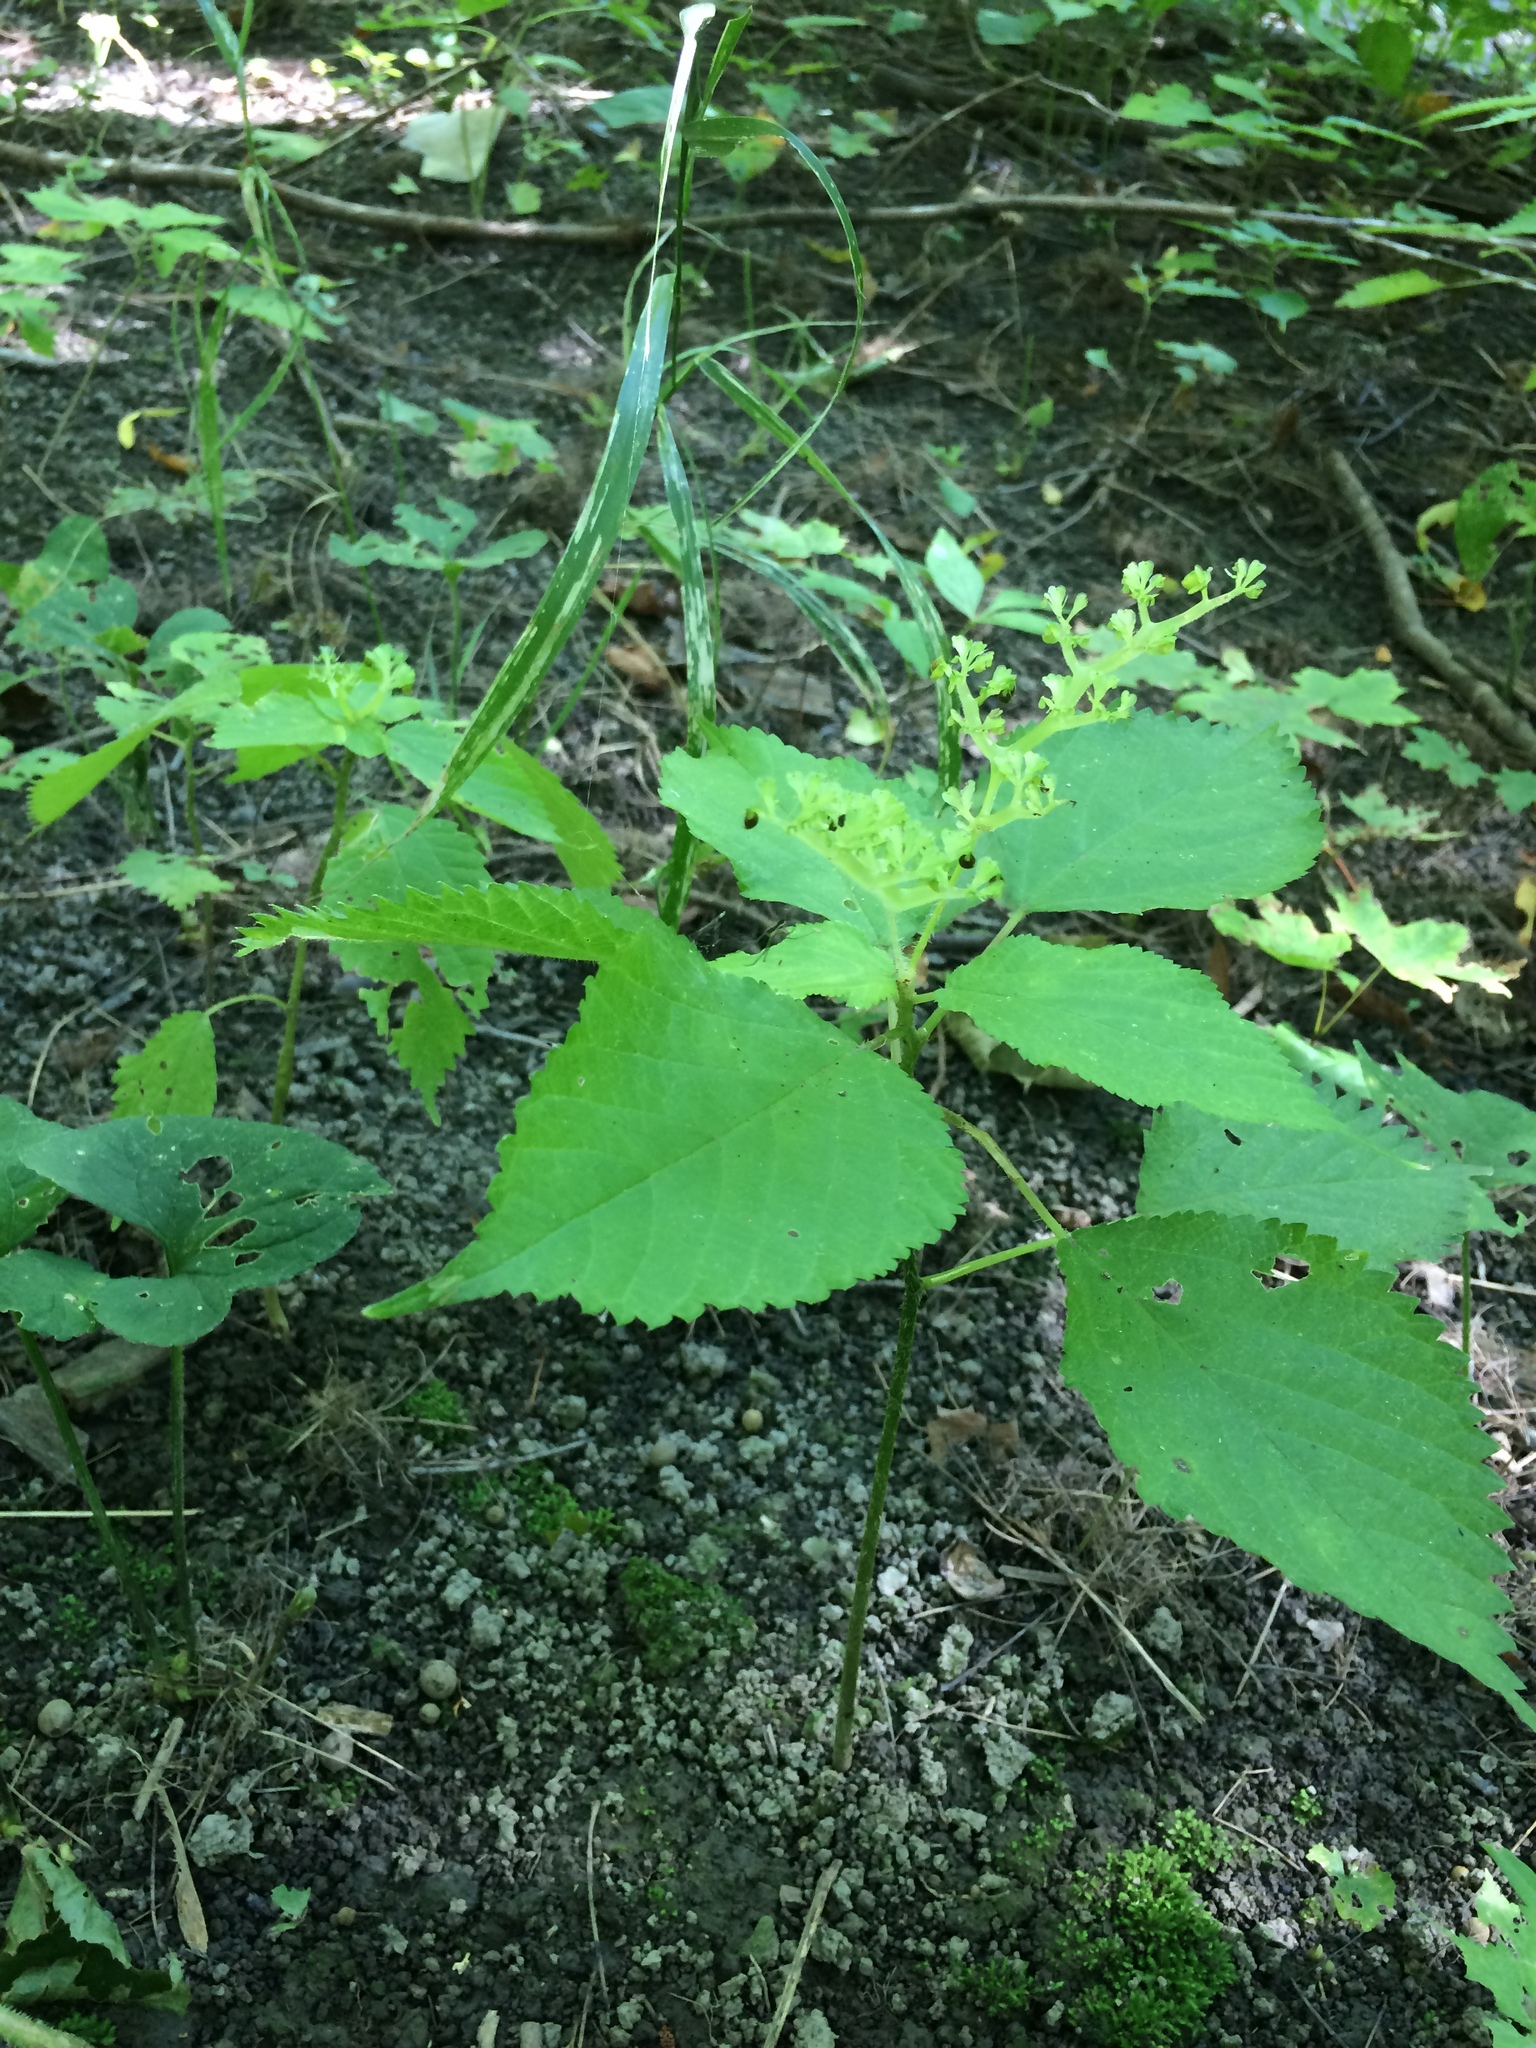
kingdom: Plantae
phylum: Tracheophyta
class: Magnoliopsida
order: Rosales
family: Urticaceae
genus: Laportea
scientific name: Laportea canadensis
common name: Canada nettle
